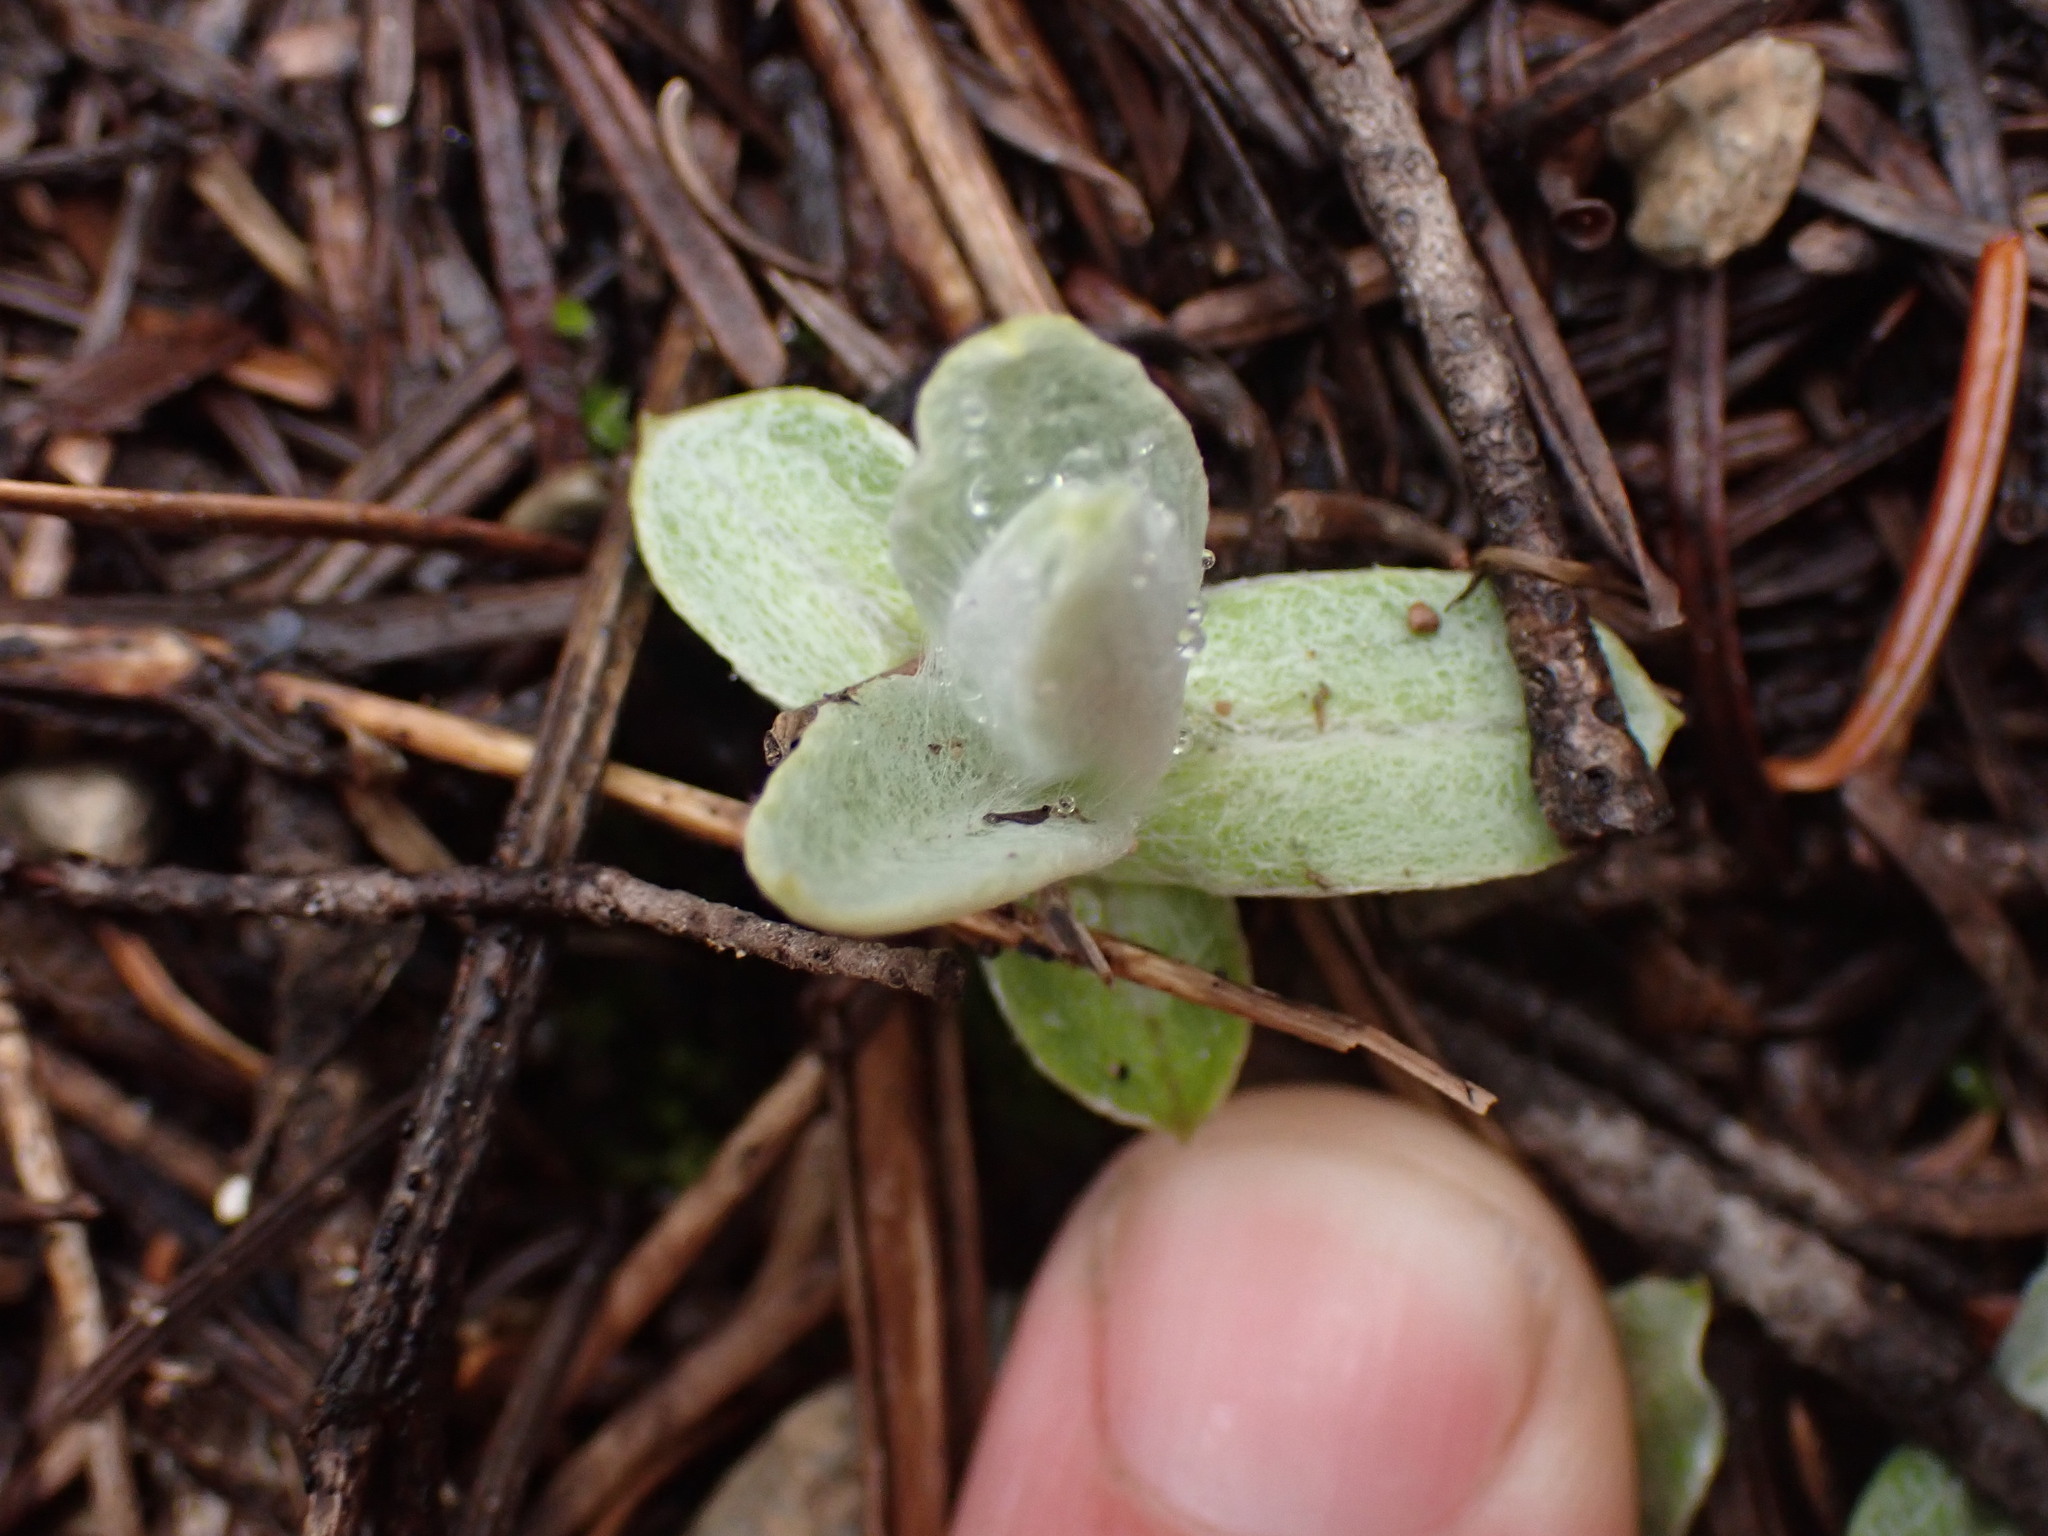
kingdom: Plantae
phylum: Tracheophyta
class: Magnoliopsida
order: Asterales
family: Asteraceae
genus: Anaphalis
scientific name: Anaphalis margaritacea
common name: Pearly everlasting
